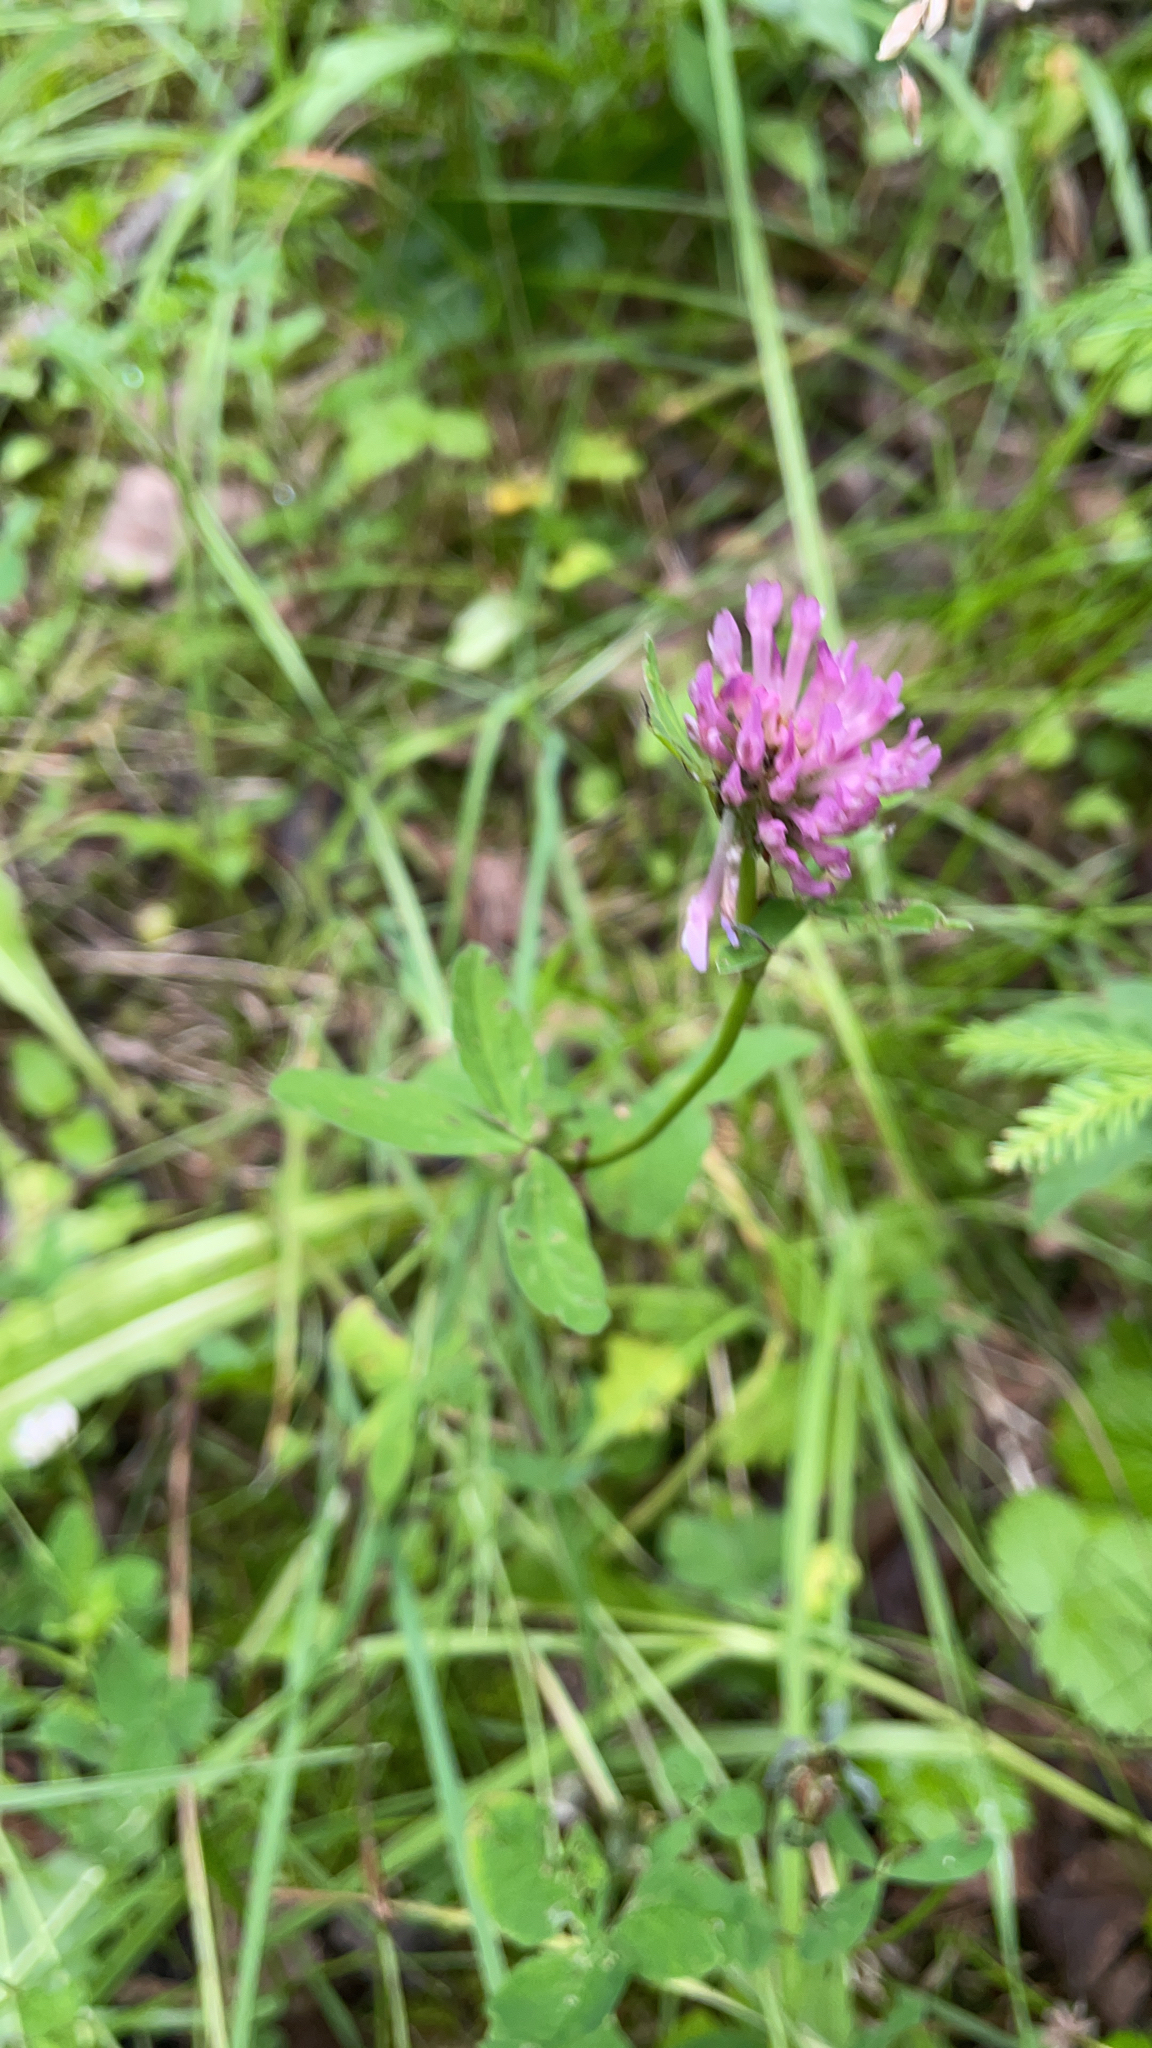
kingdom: Plantae
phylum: Tracheophyta
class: Magnoliopsida
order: Fabales
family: Fabaceae
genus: Trifolium
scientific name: Trifolium pratense
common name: Red clover
